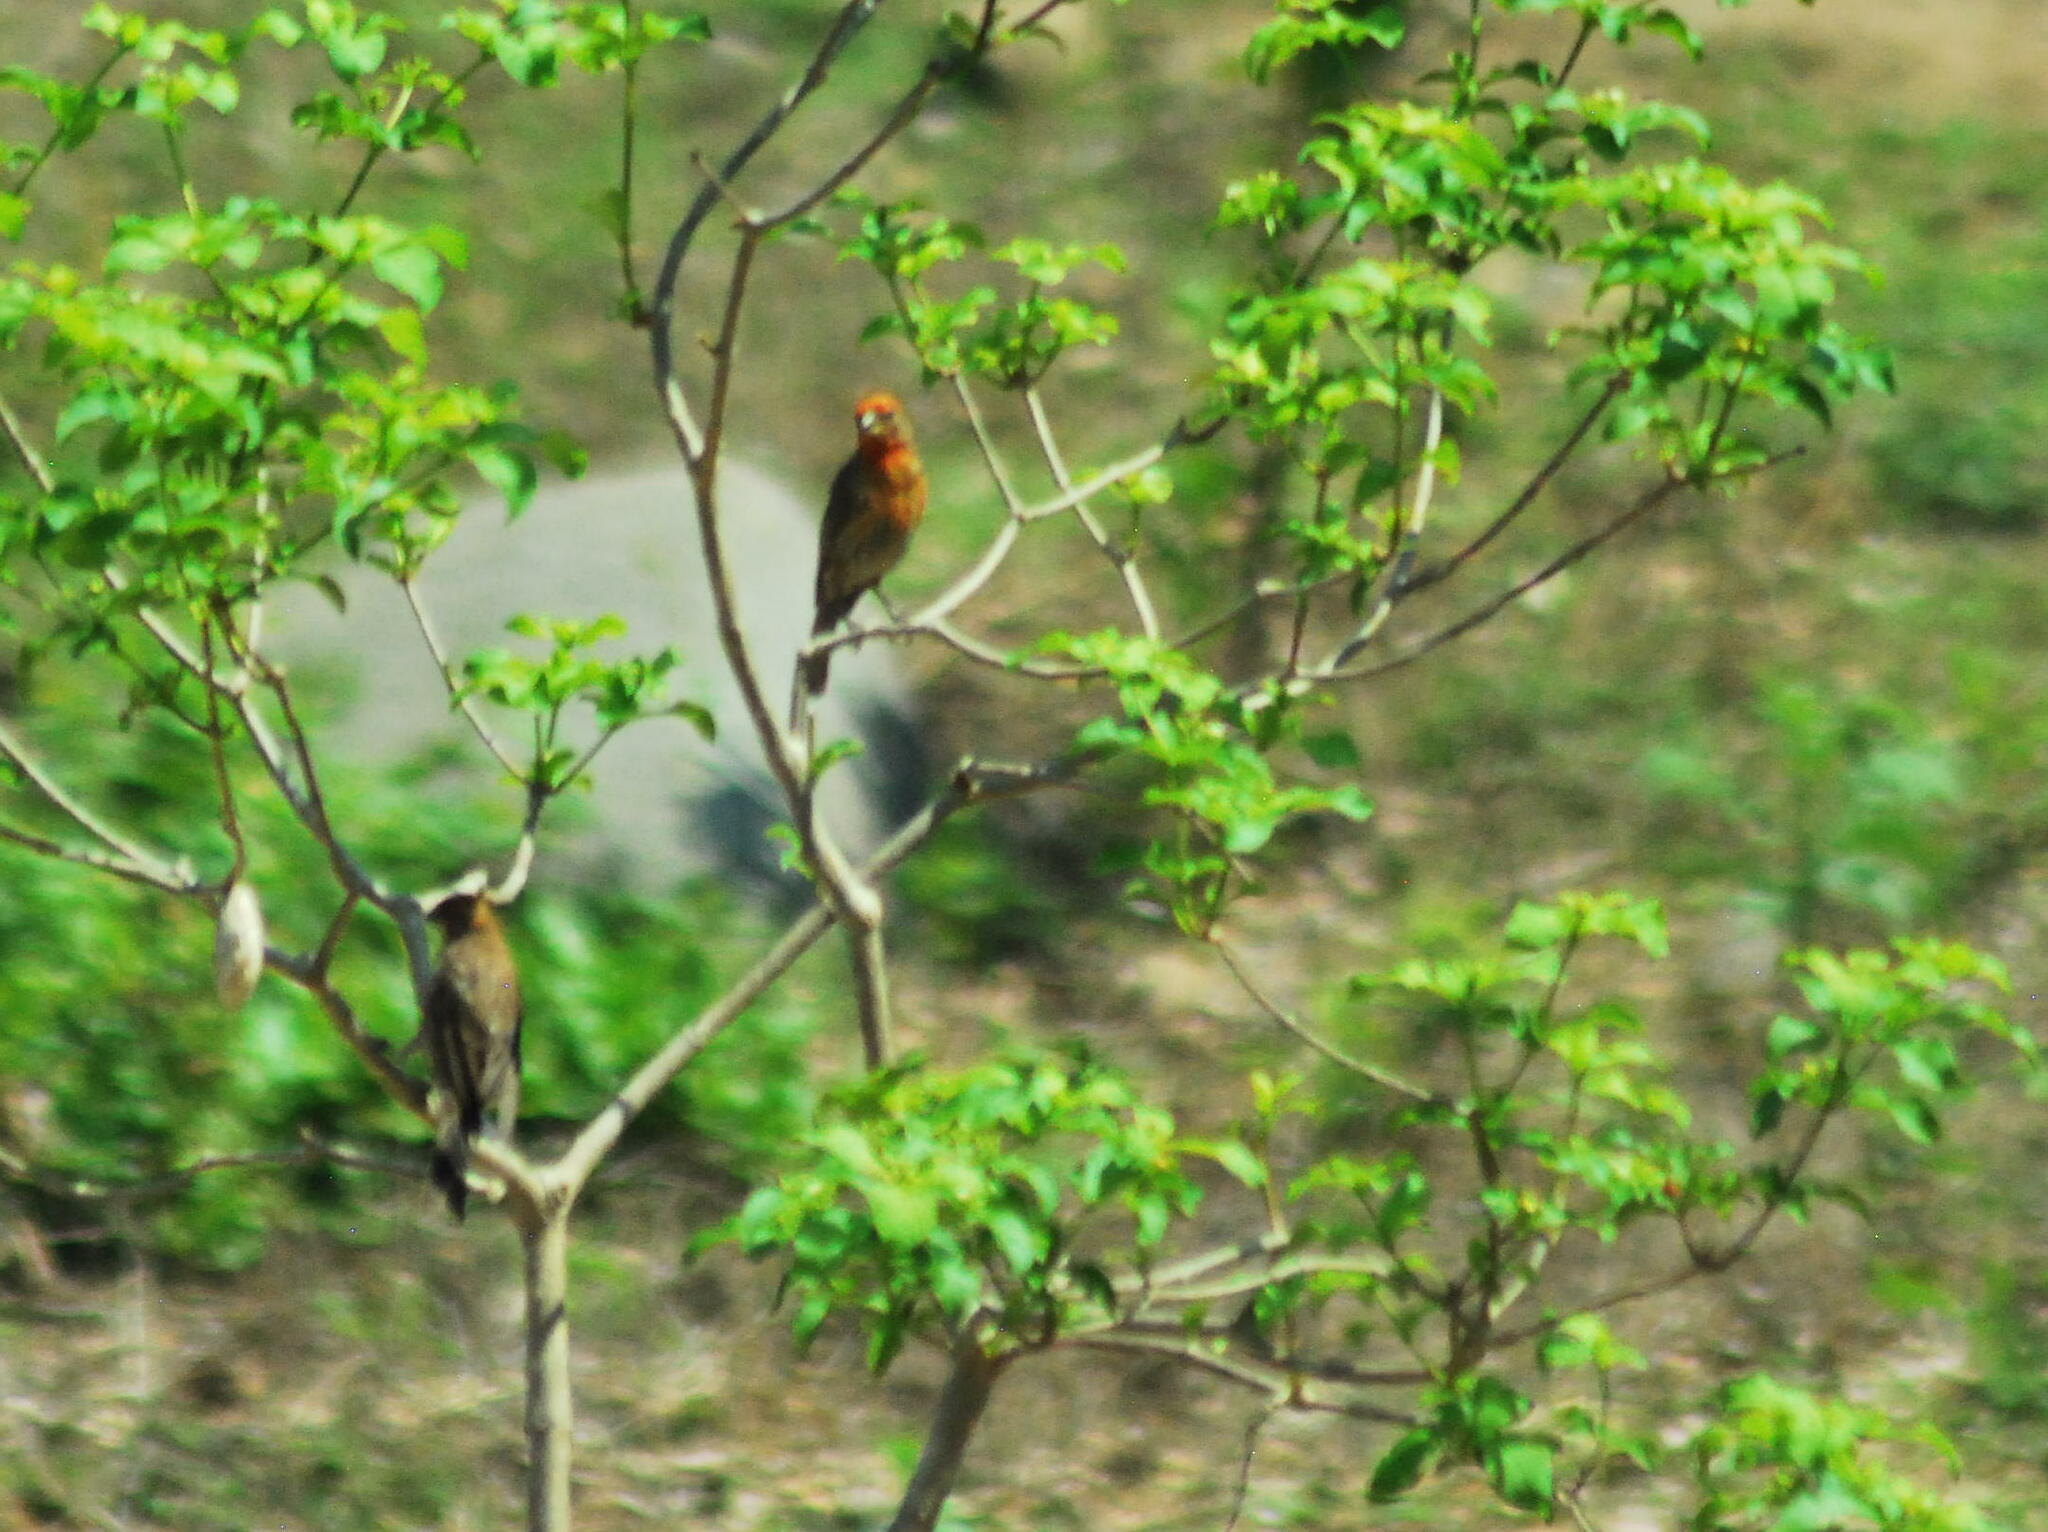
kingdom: Animalia
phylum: Chordata
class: Aves
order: Passeriformes
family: Fringillidae
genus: Haemorhous
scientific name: Haemorhous mexicanus
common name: House finch
